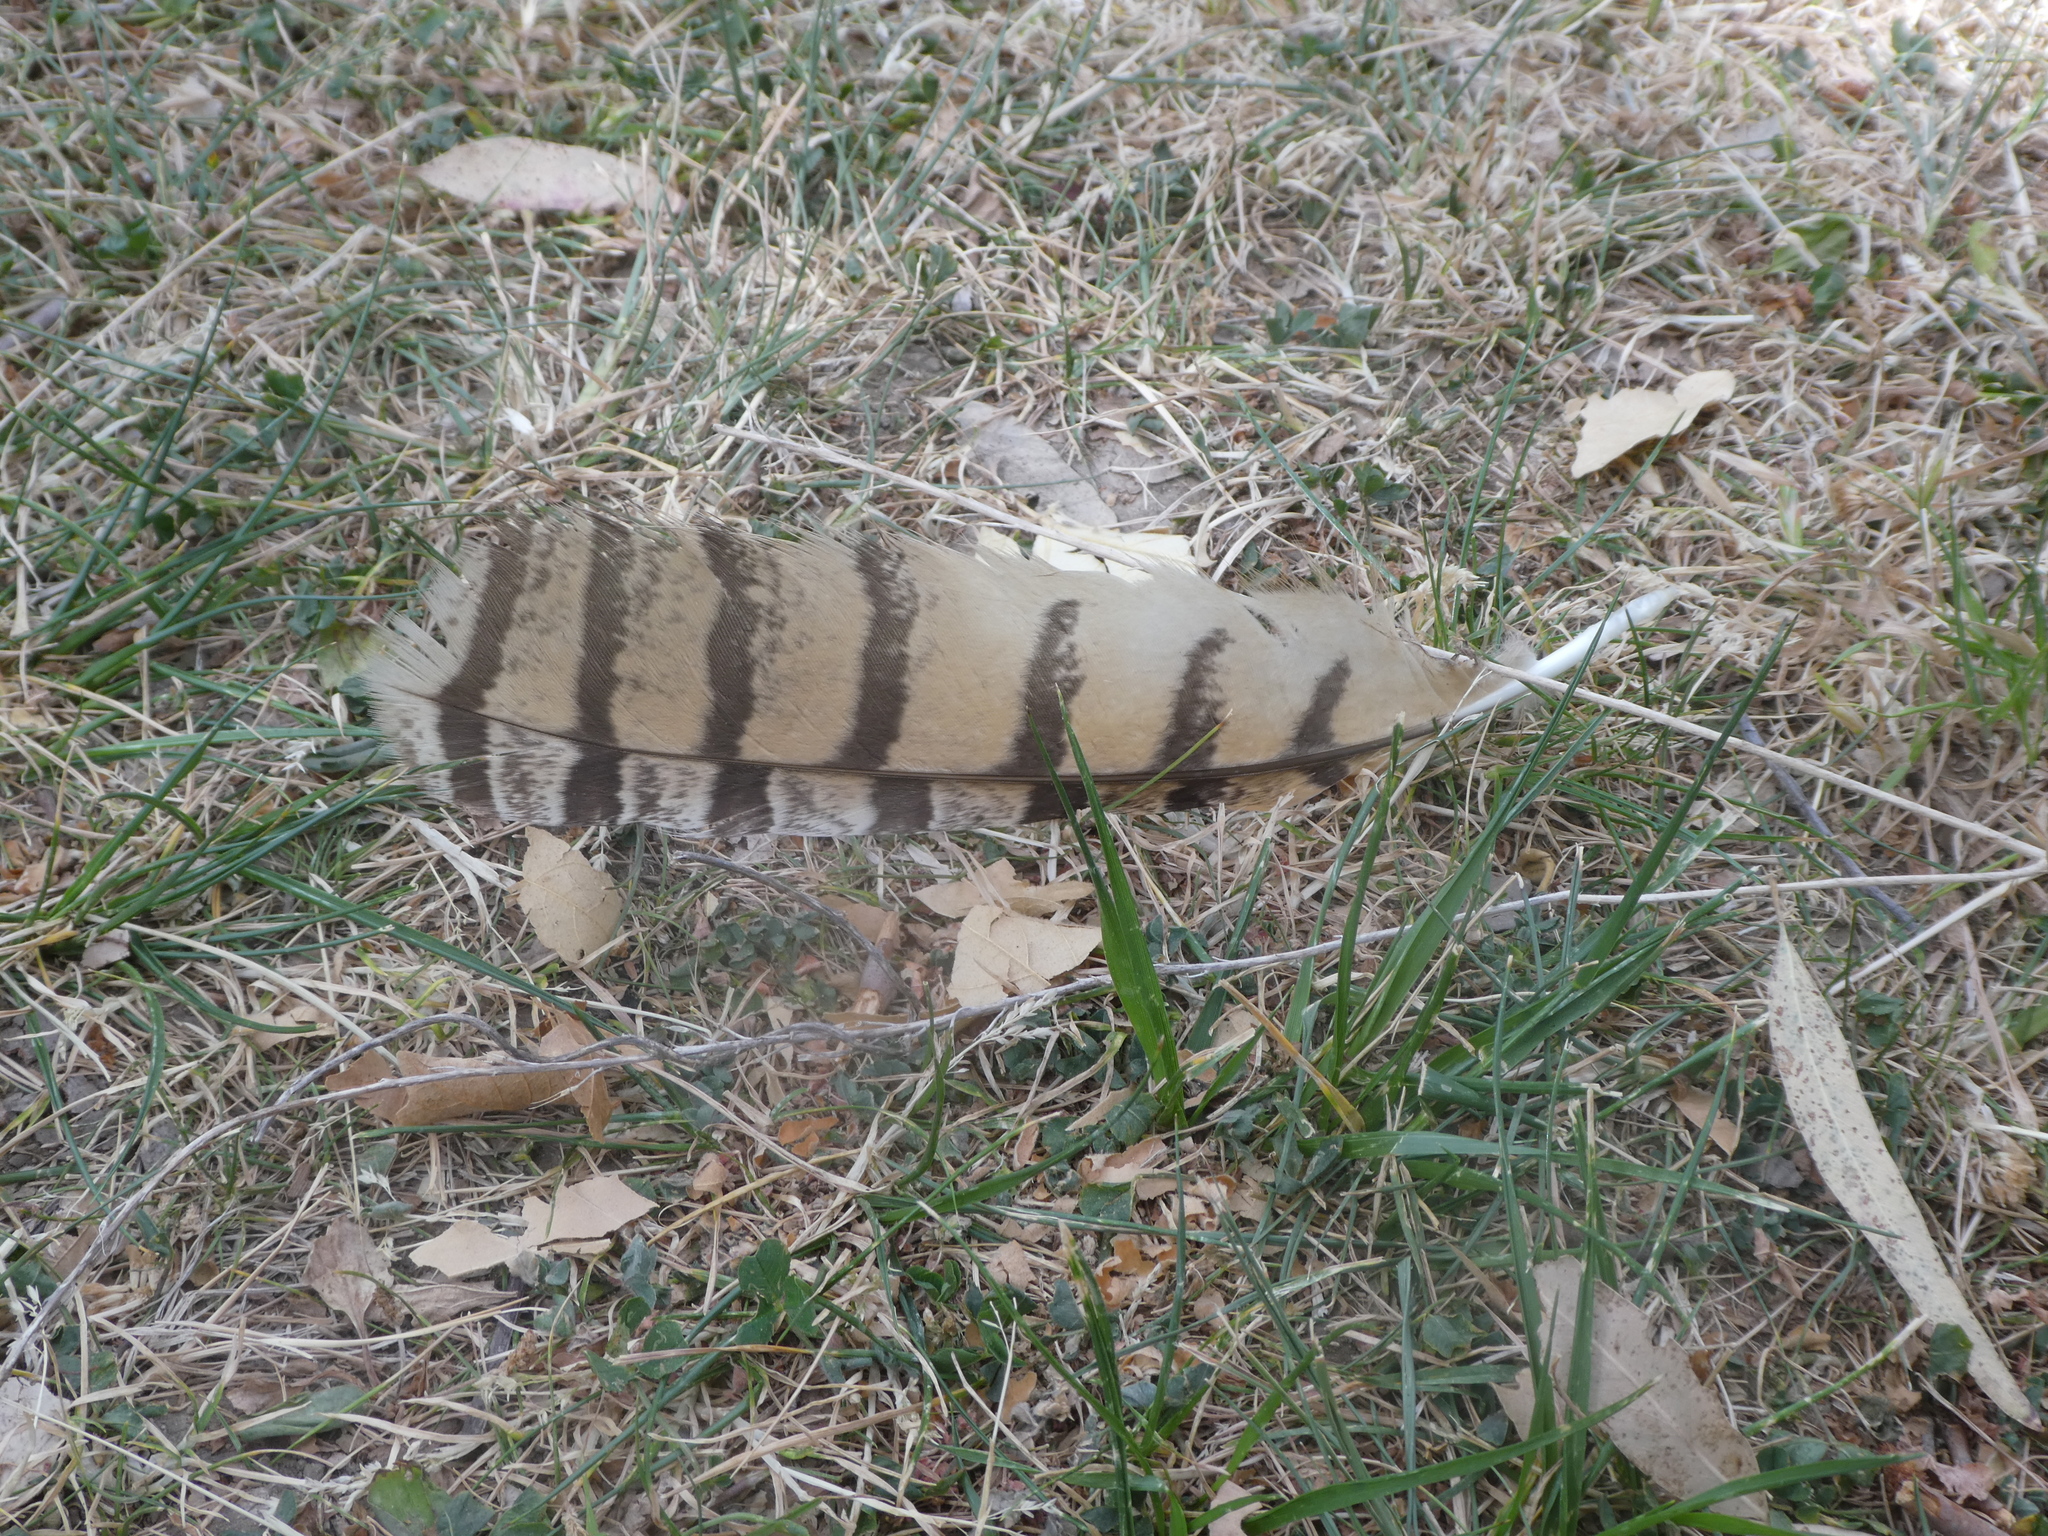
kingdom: Animalia
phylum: Chordata
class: Aves
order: Strigiformes
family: Strigidae
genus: Bubo
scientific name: Bubo virginianus
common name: Great horned owl
